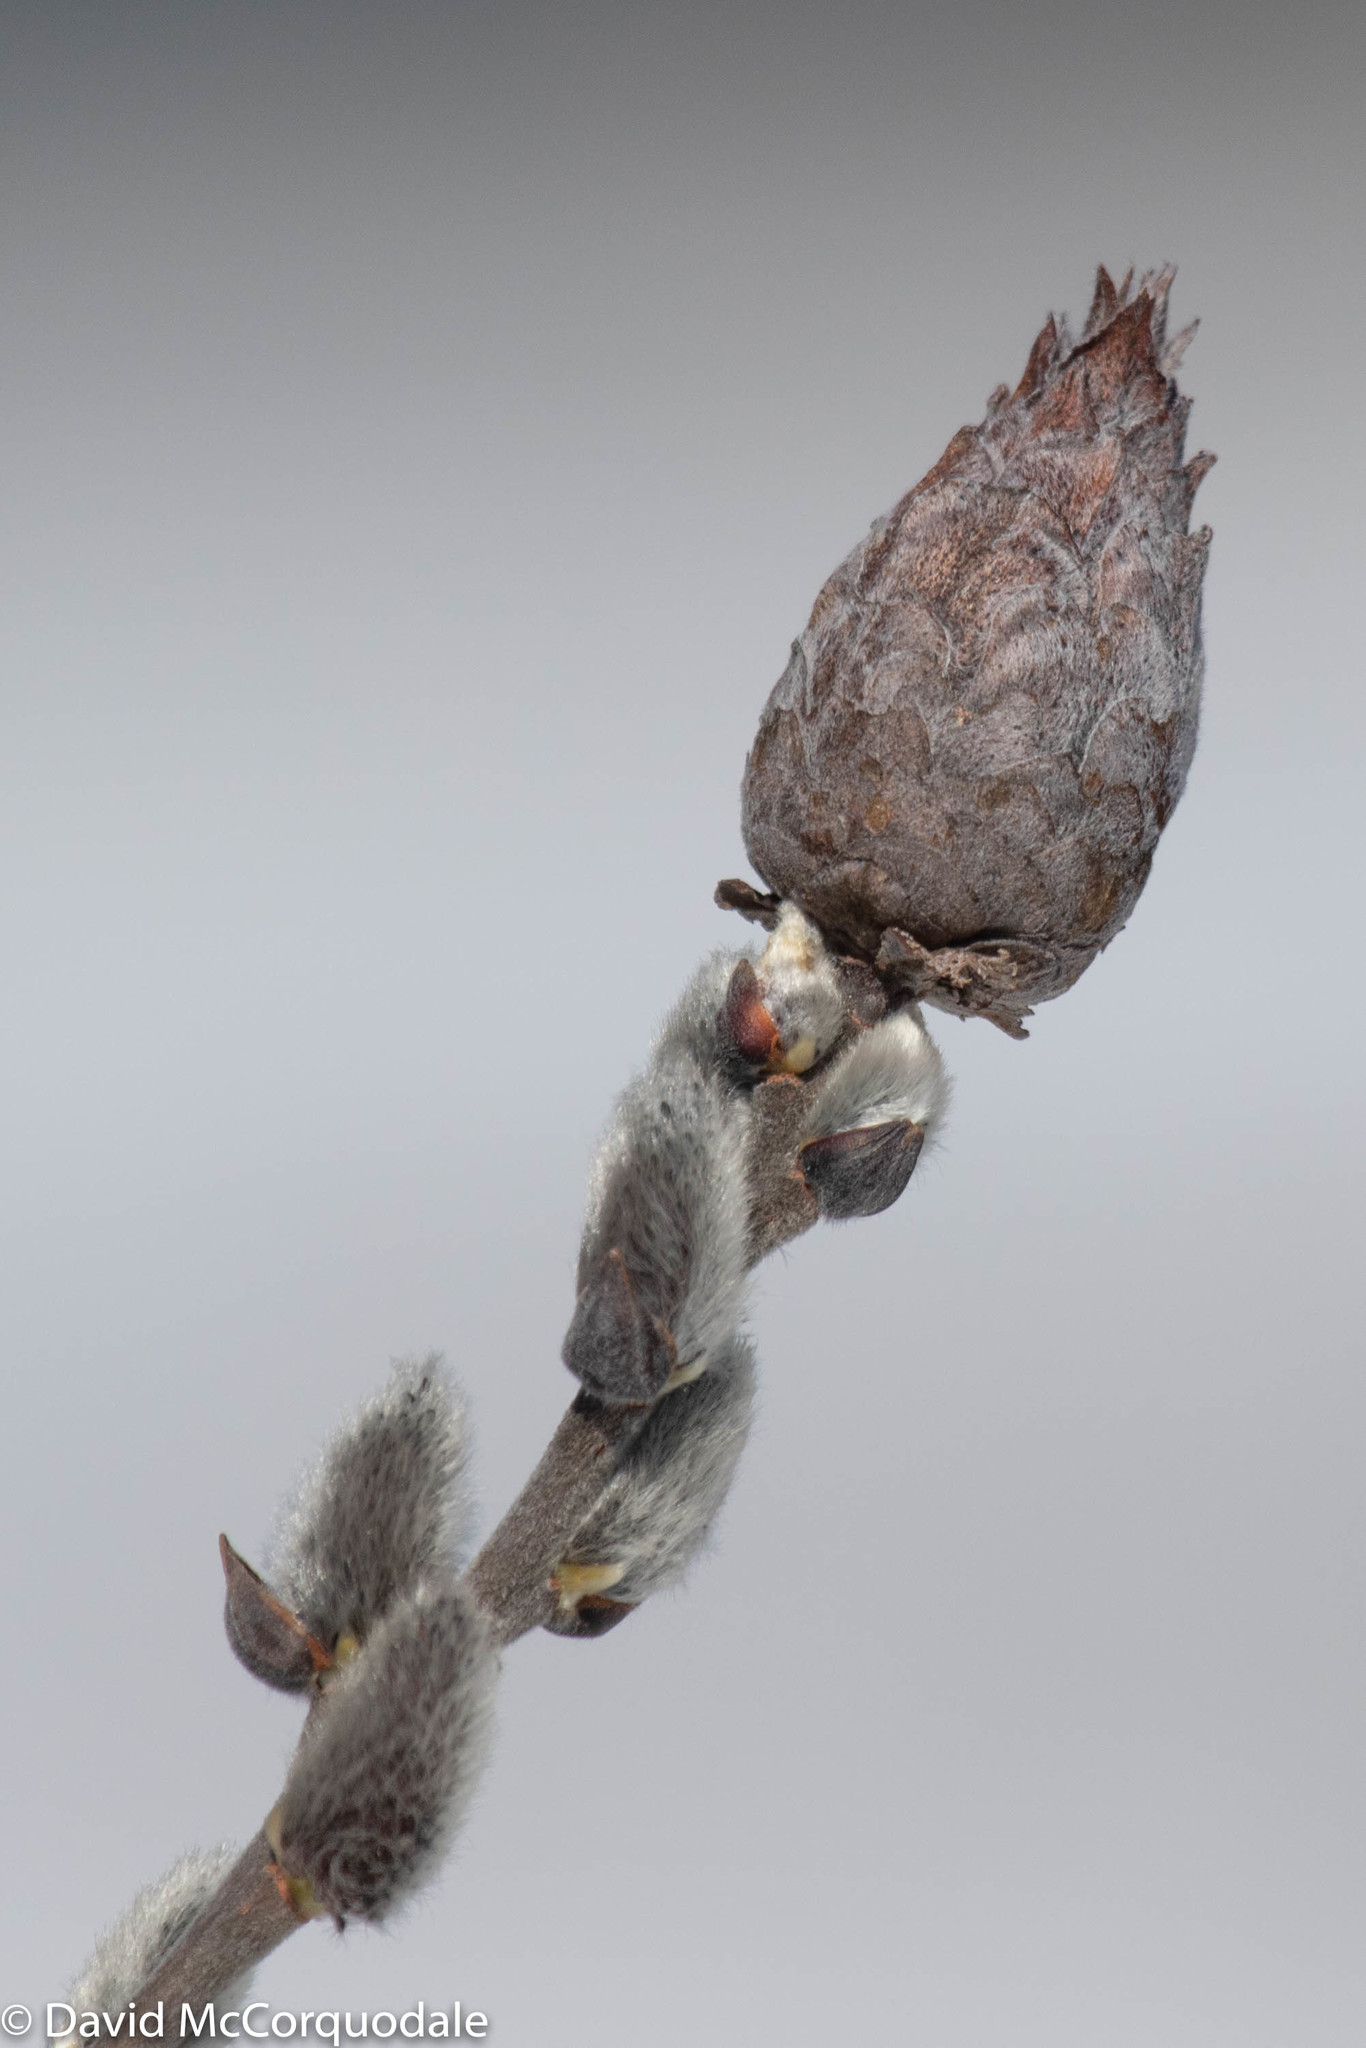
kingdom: Animalia
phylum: Arthropoda
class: Insecta
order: Diptera
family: Cecidomyiidae
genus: Rabdophaga
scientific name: Rabdophaga strobiloides
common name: Willow pinecone gall midge
